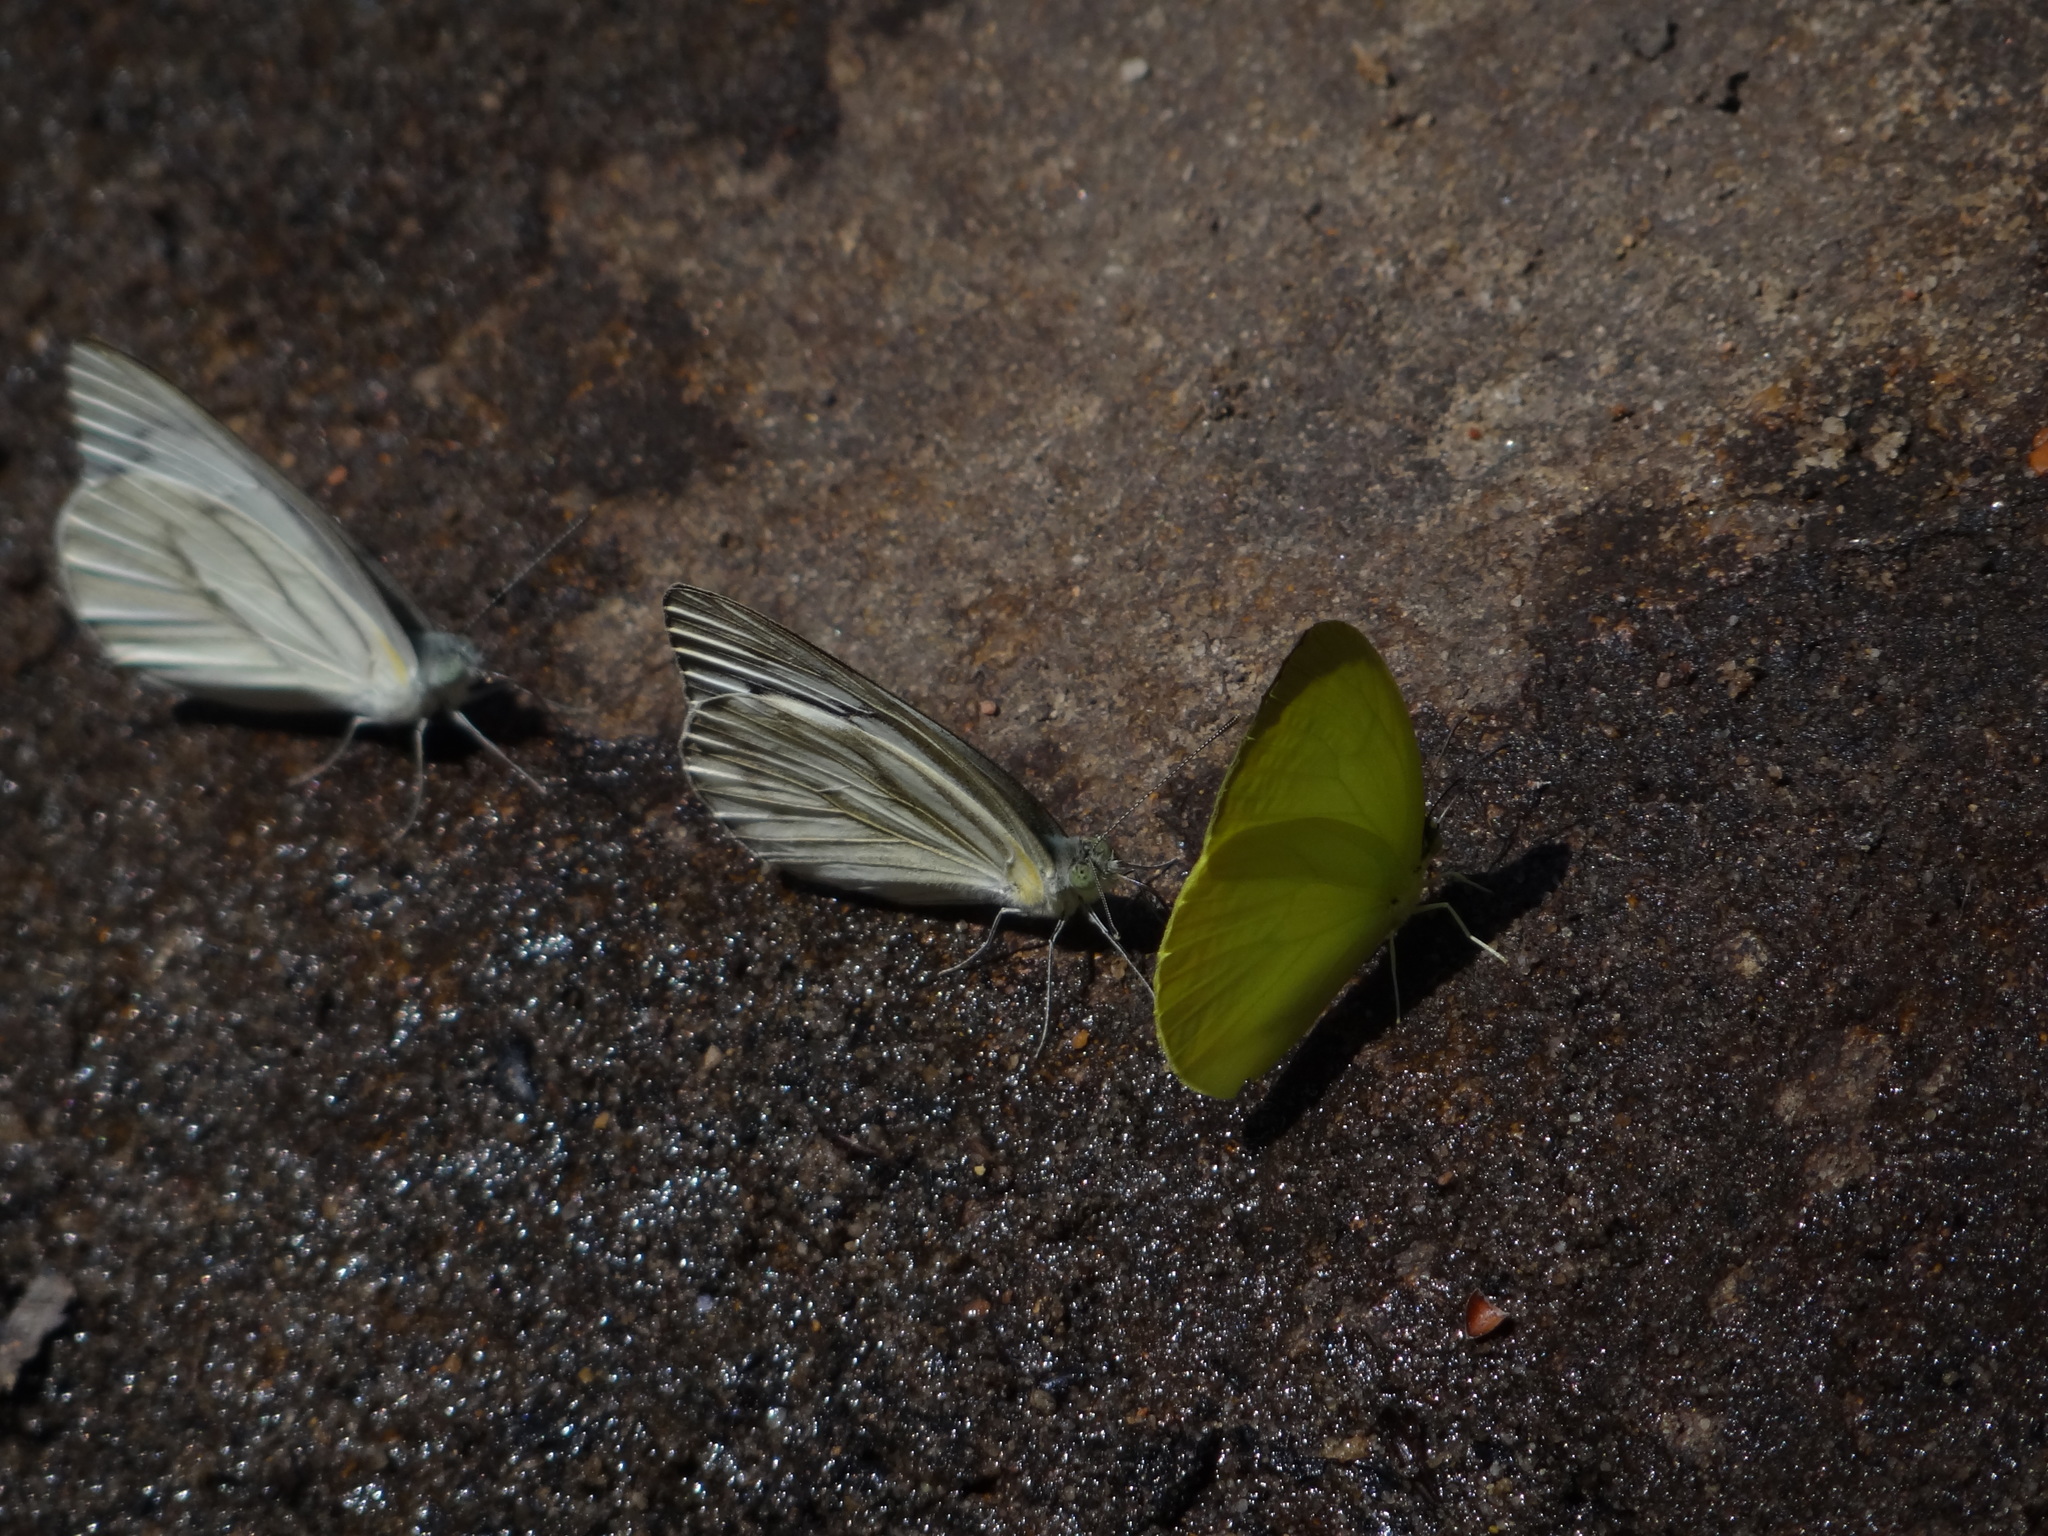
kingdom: Animalia
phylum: Arthropoda
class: Insecta
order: Lepidoptera
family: Pieridae
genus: Appias
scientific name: Appias libythea
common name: Striped albatross
